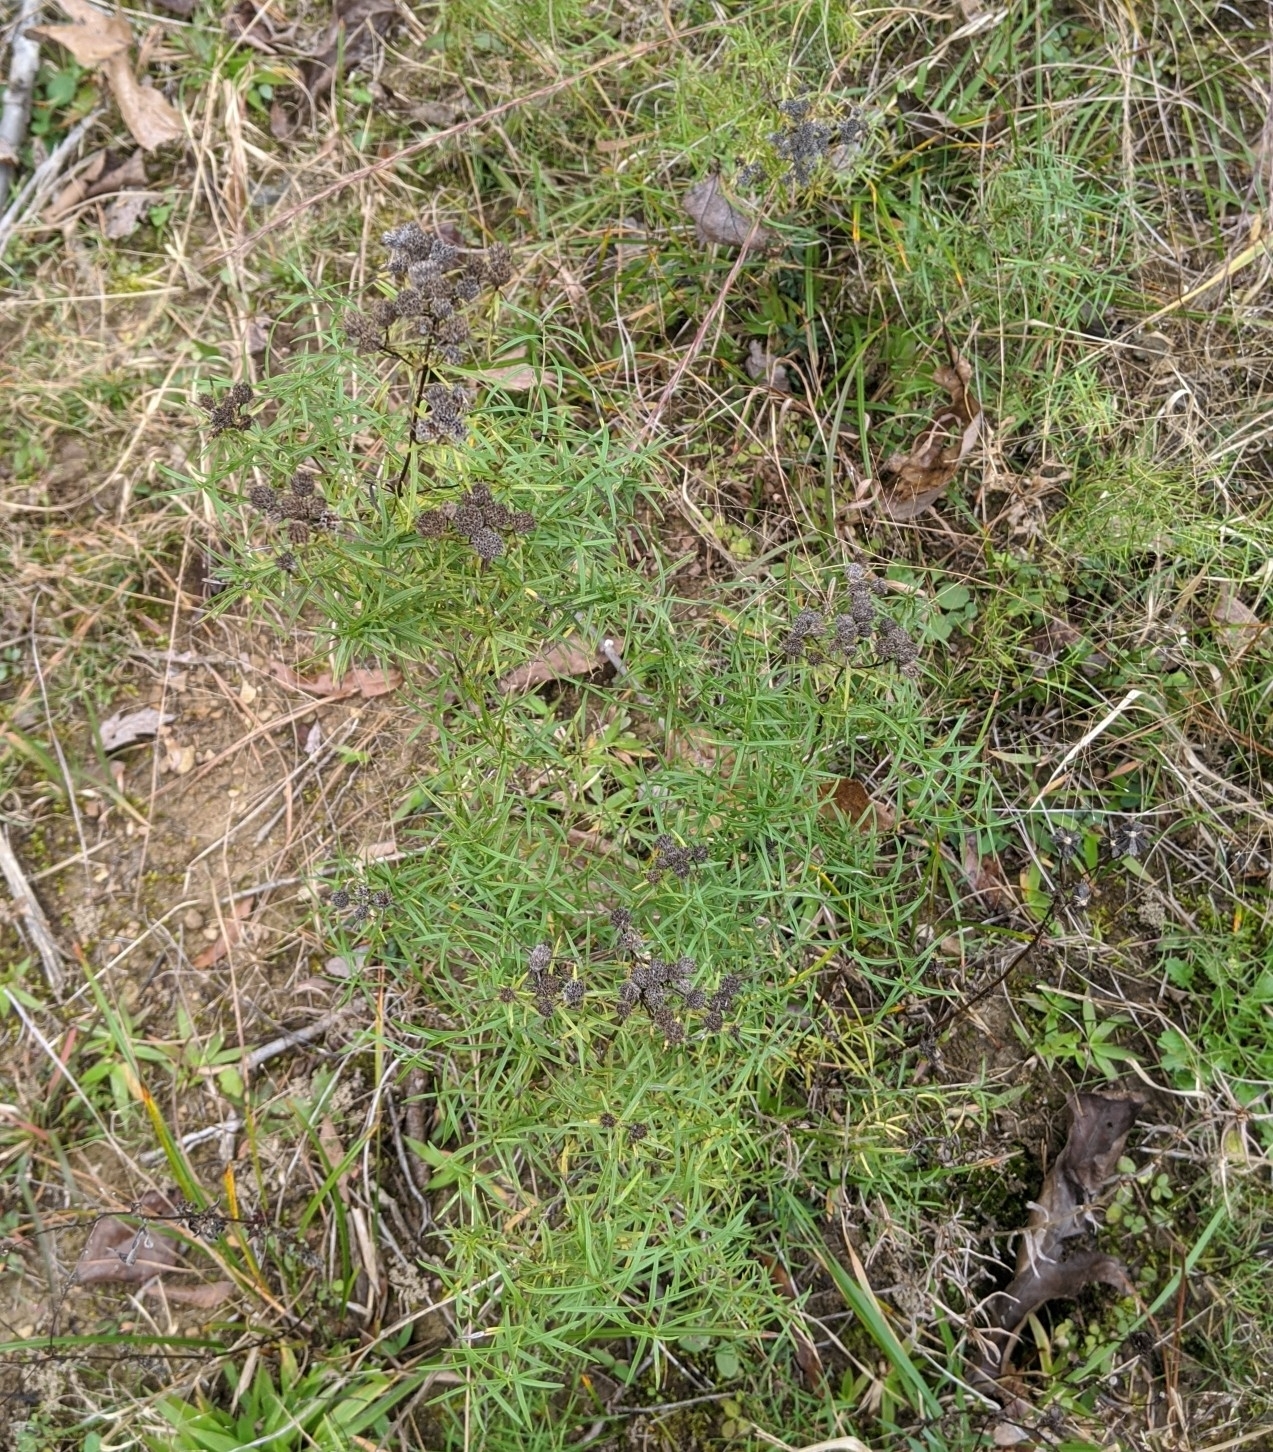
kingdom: Plantae
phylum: Tracheophyta
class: Magnoliopsida
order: Lamiales
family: Lamiaceae
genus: Pycnanthemum
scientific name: Pycnanthemum tenuifolium
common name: Narrow-leaf mountain-mint
